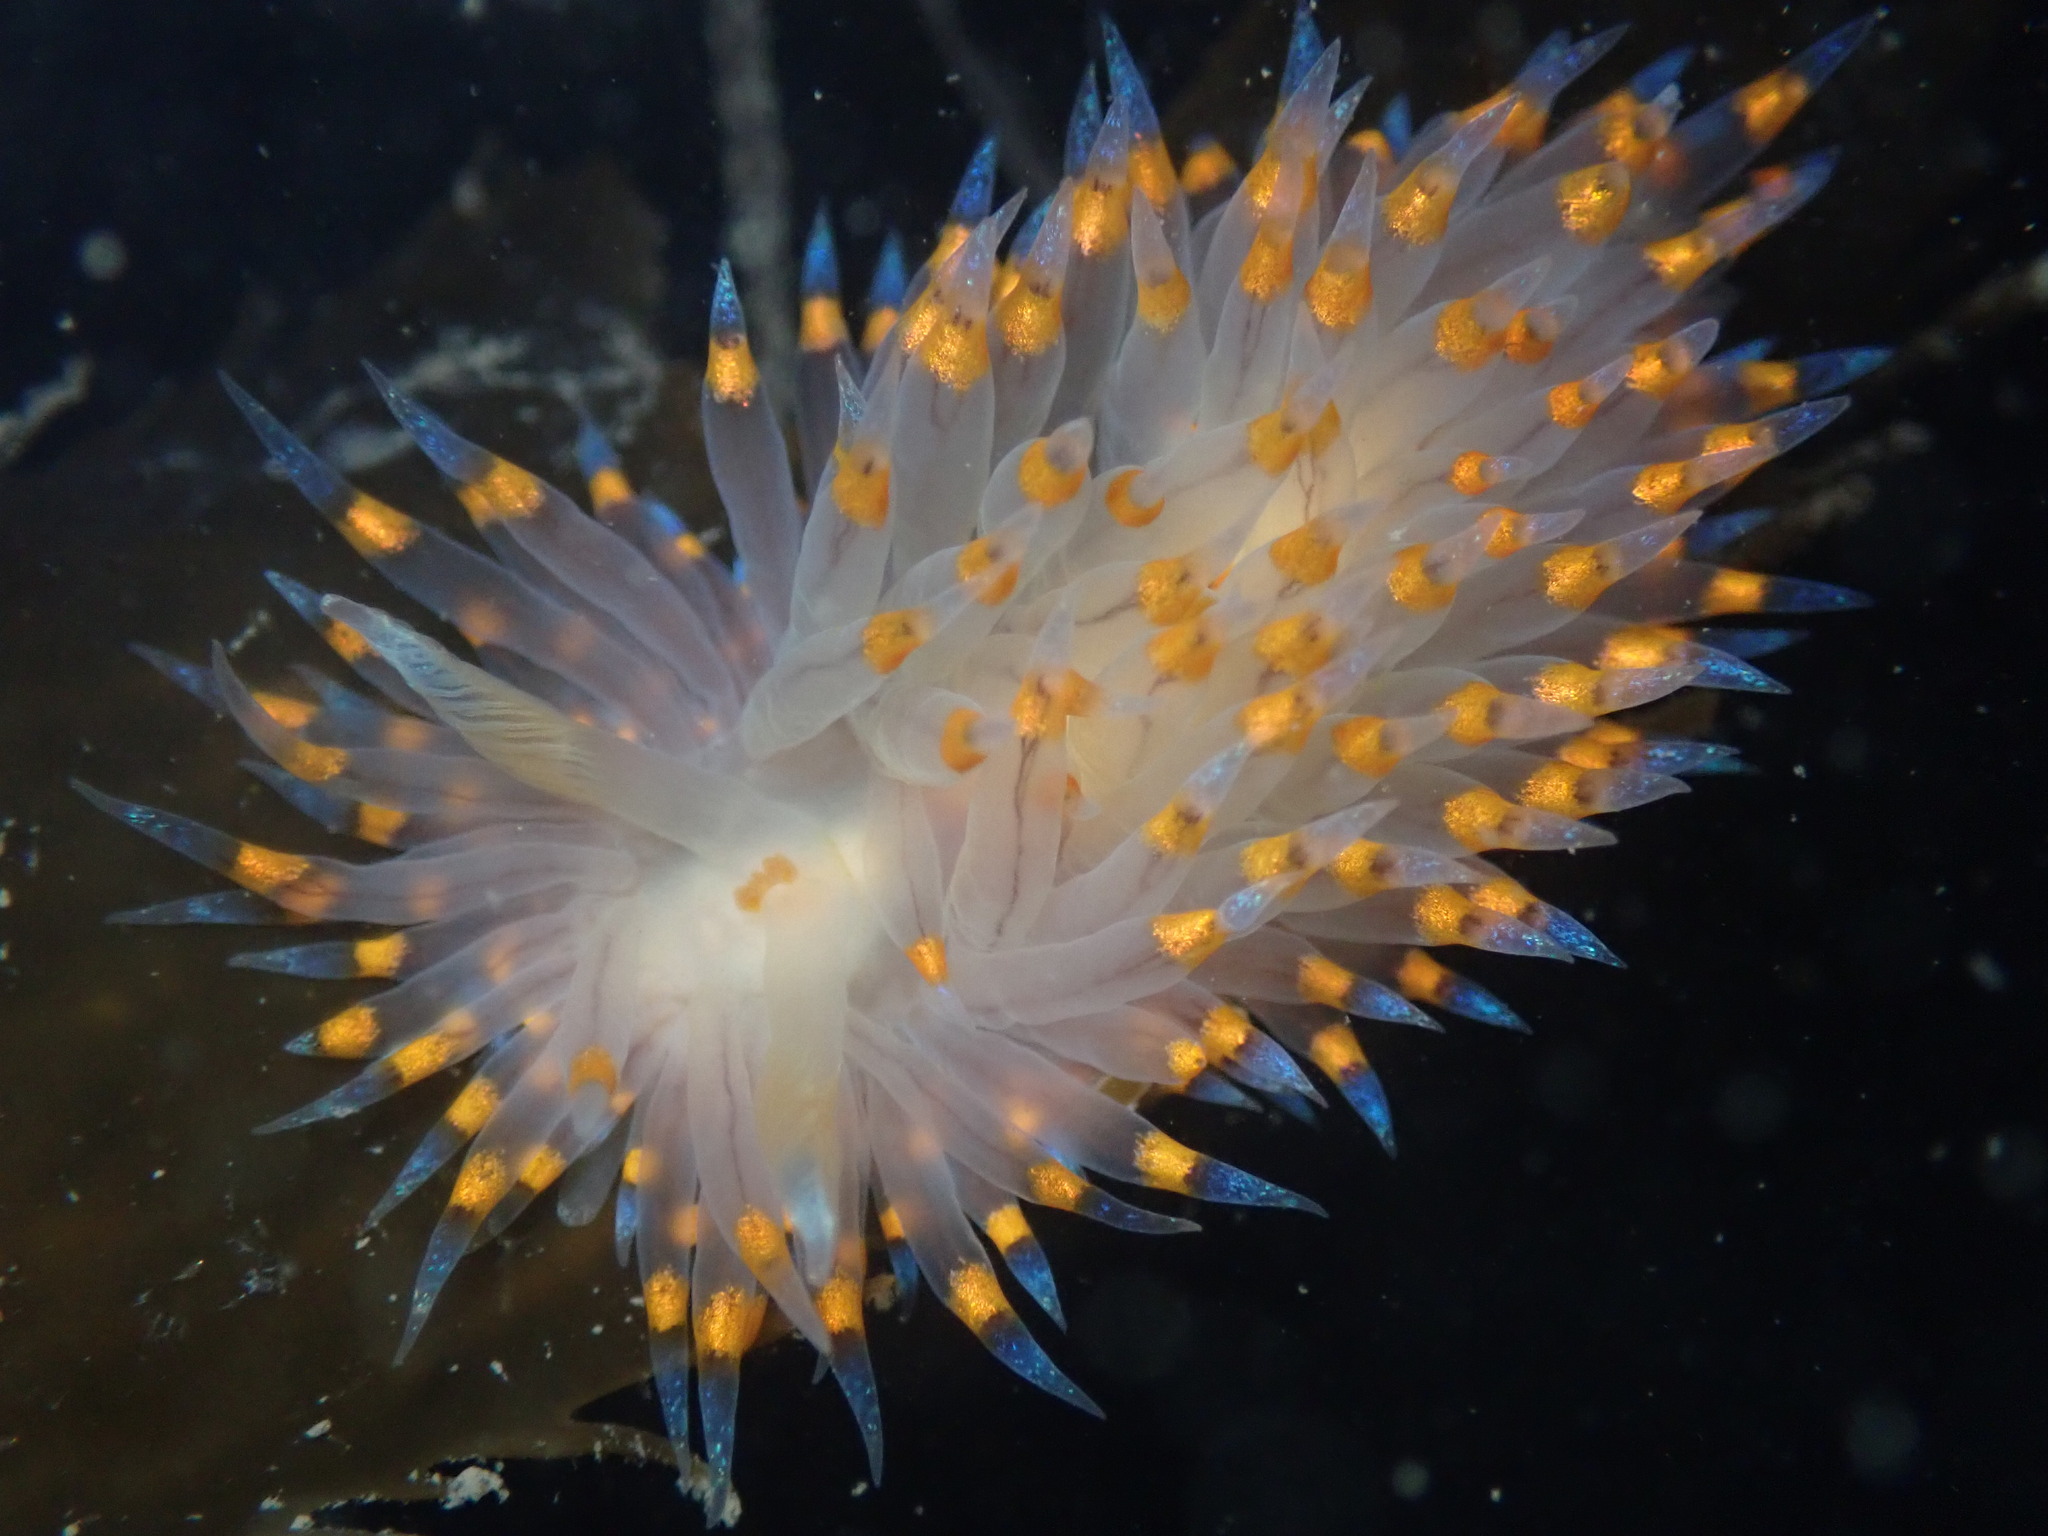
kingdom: Animalia
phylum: Mollusca
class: Gastropoda
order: Nudibranchia
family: Janolidae
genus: Antiopella
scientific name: Antiopella barbarensis
